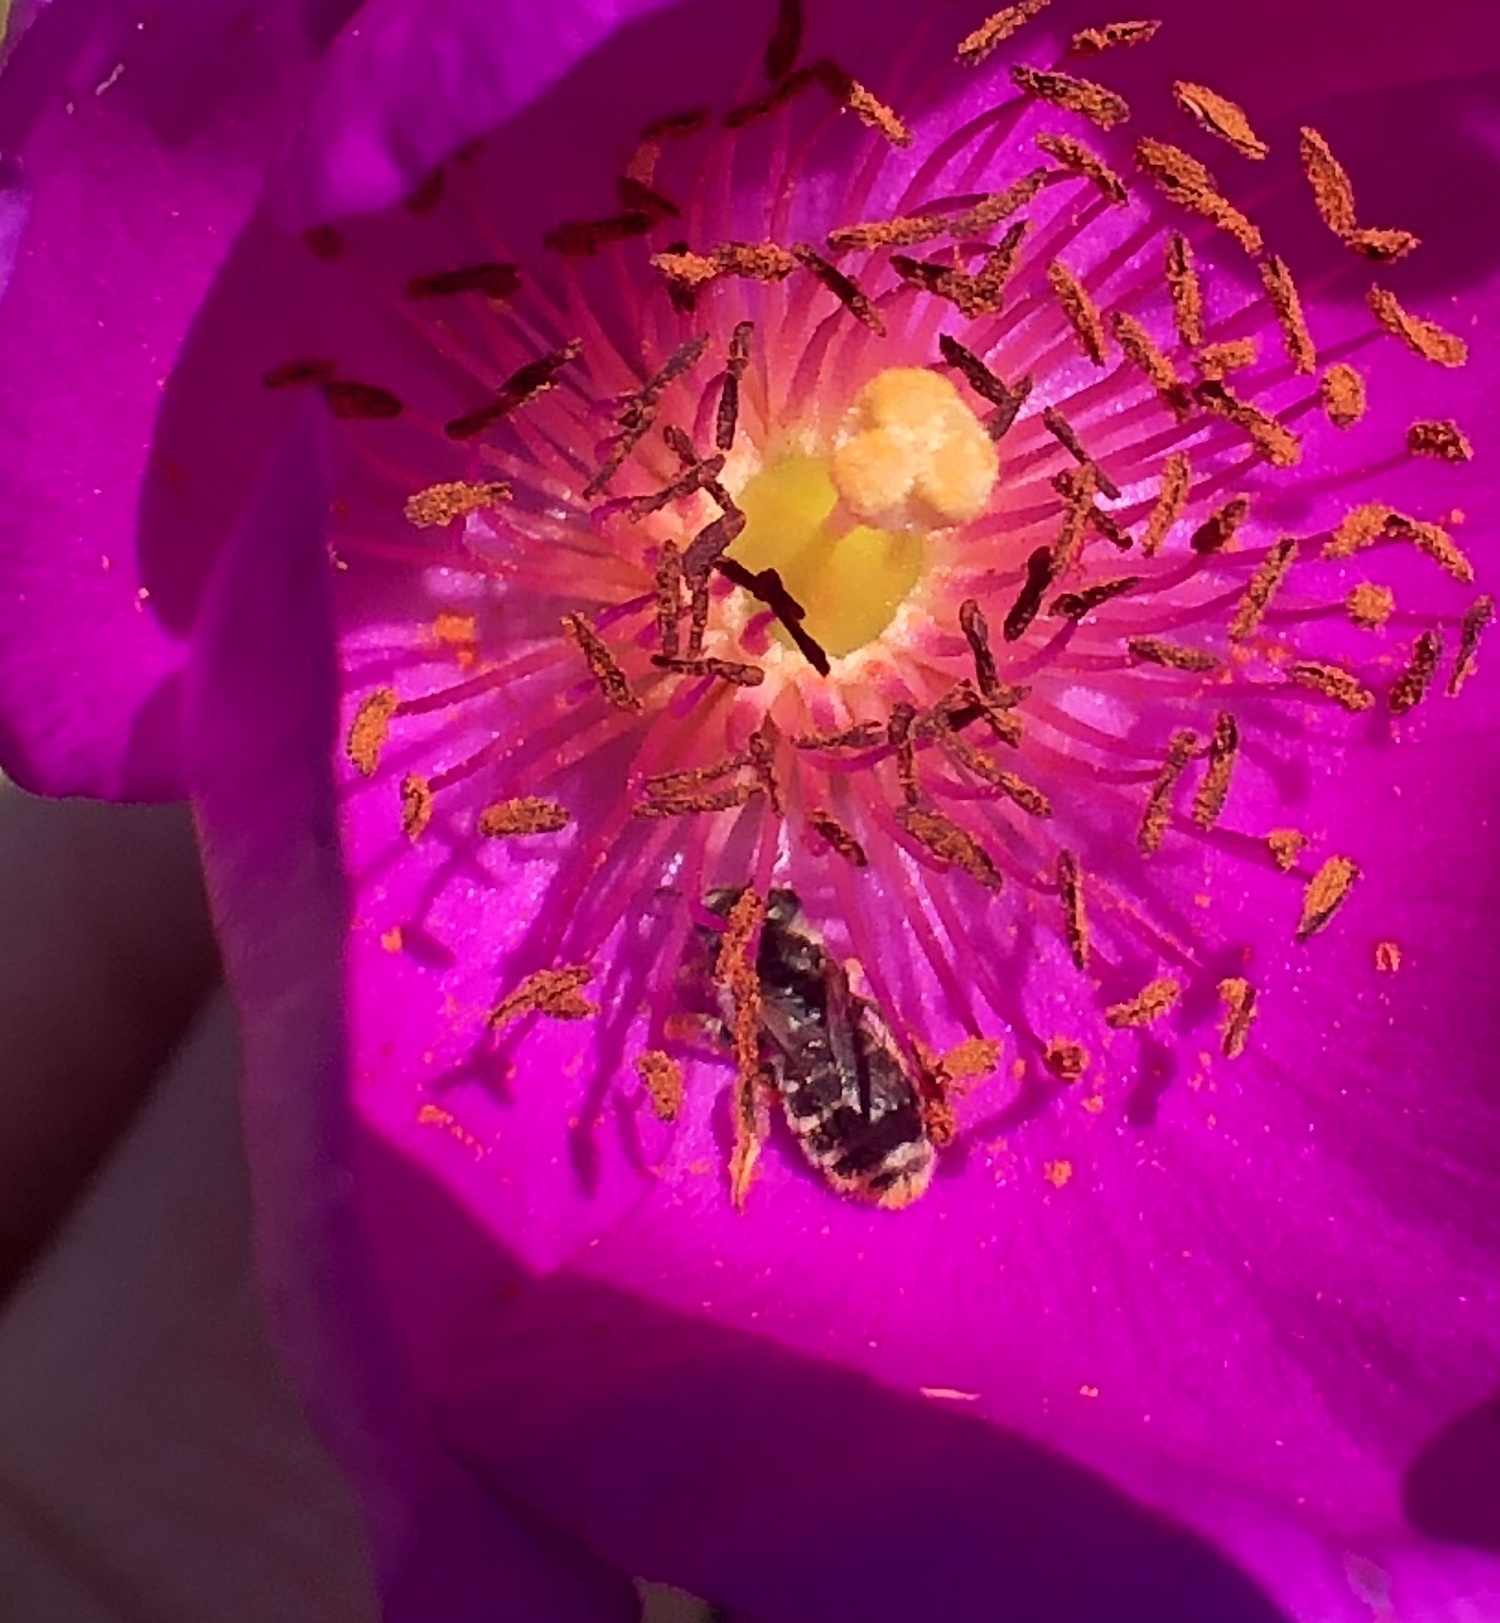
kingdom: Animalia
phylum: Arthropoda
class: Insecta
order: Hymenoptera
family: Halictidae
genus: Halictus
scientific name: Halictus tripartitus
